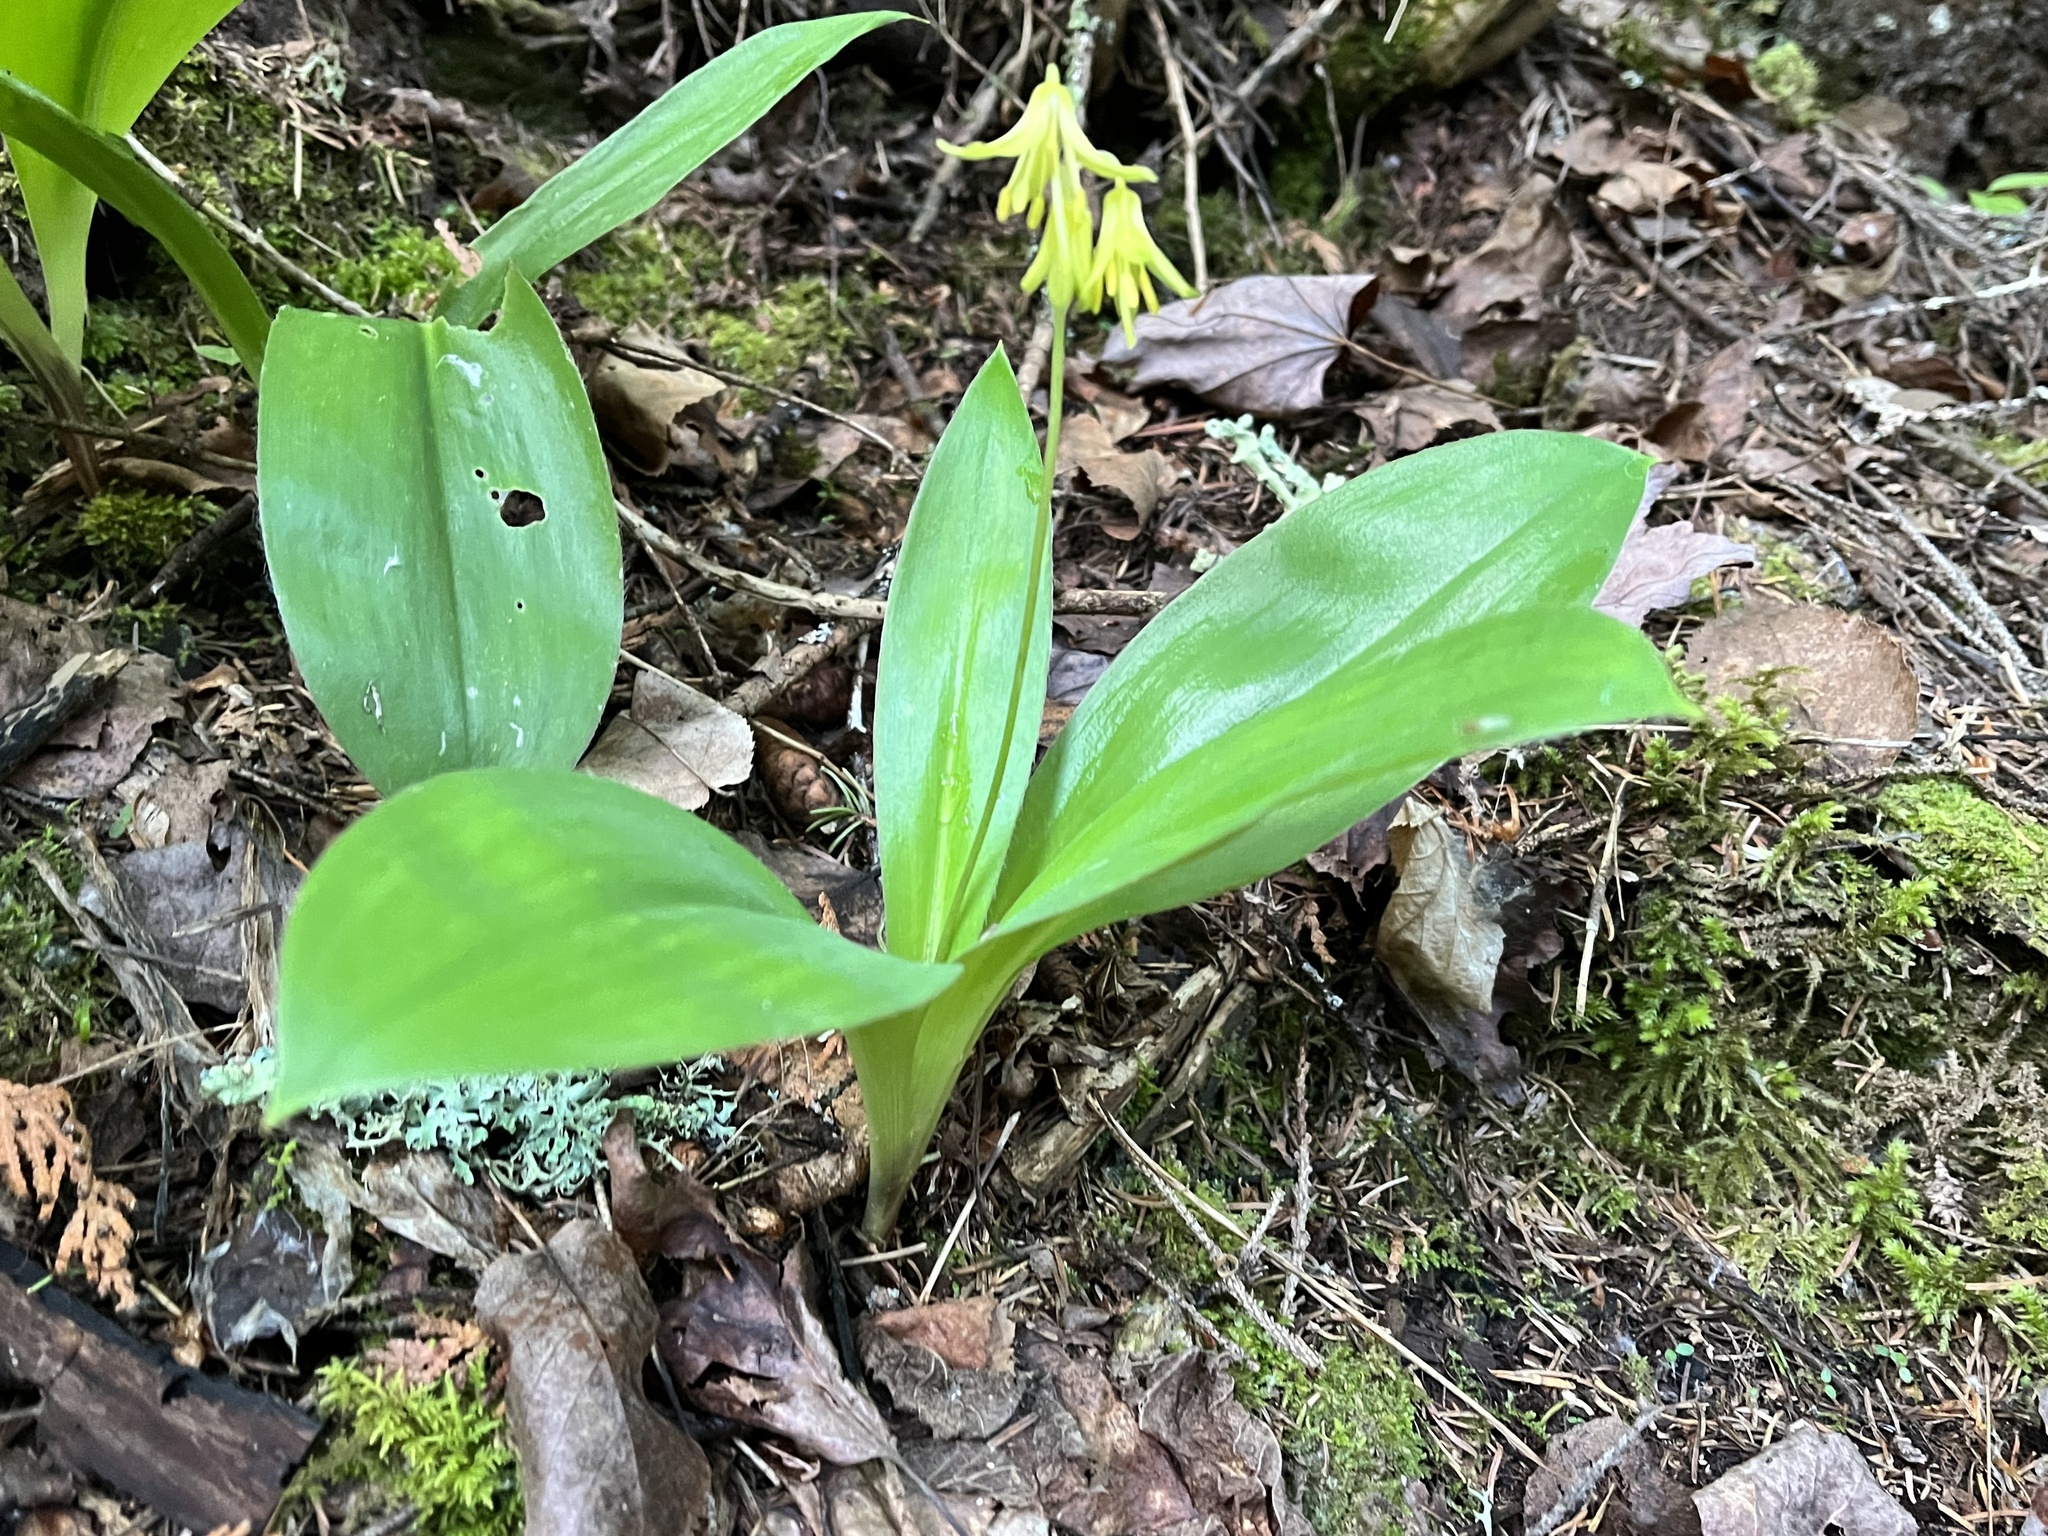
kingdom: Plantae
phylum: Tracheophyta
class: Liliopsida
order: Liliales
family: Liliaceae
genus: Clintonia
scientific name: Clintonia borealis
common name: Yellow clintonia
